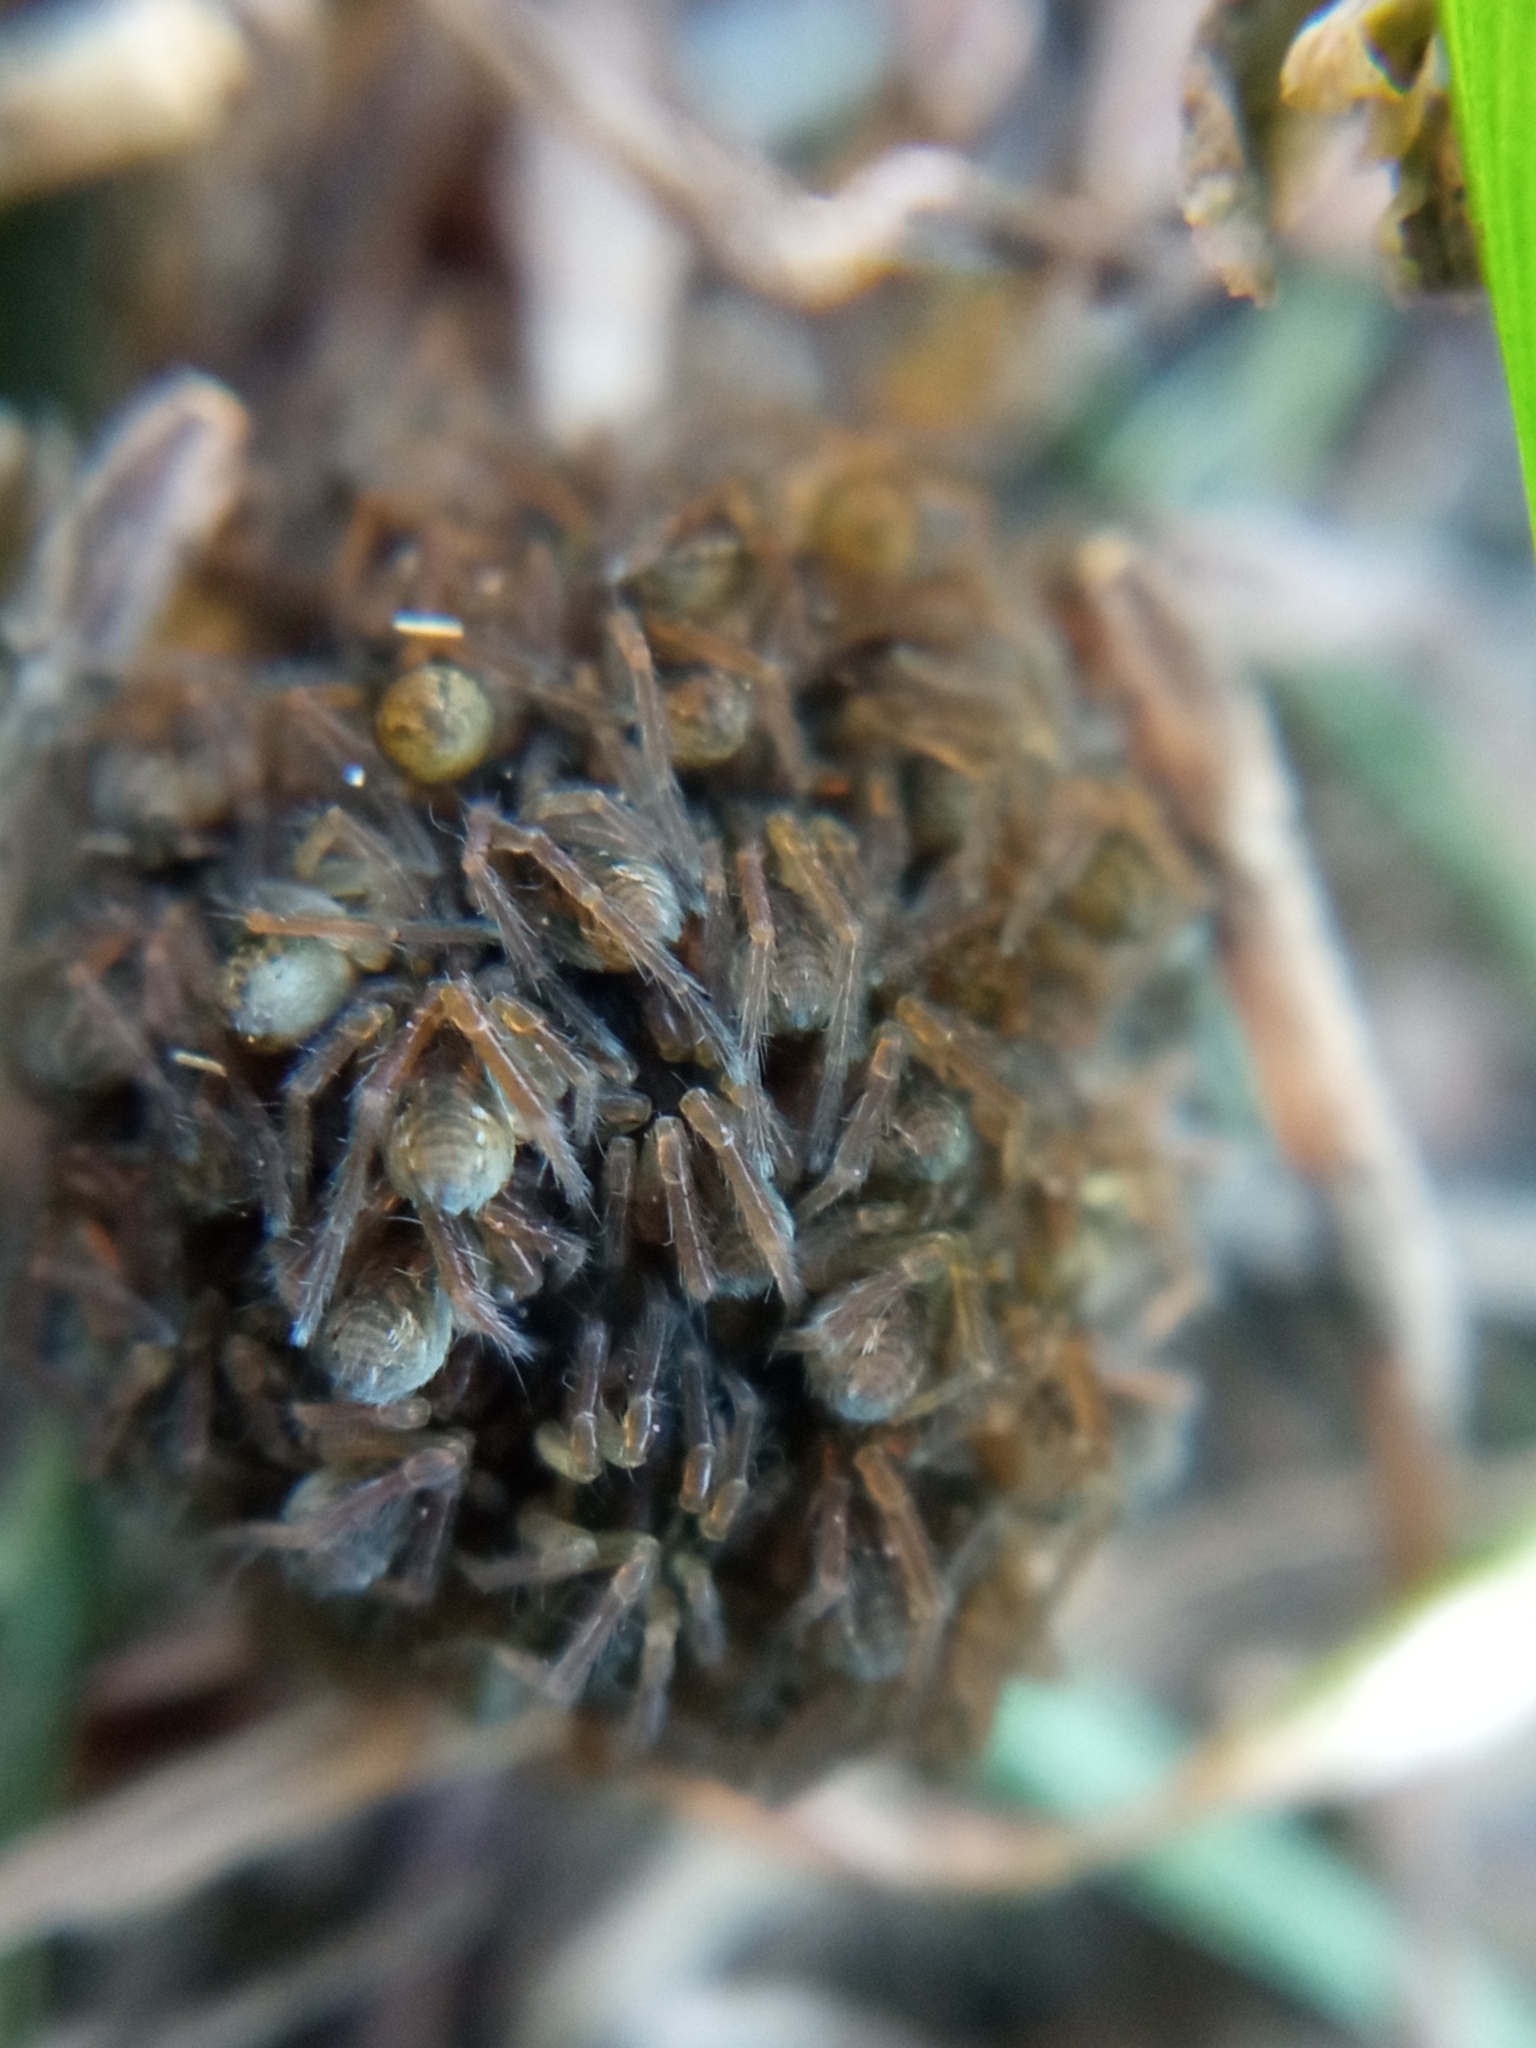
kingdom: Animalia
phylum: Arthropoda
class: Arachnida
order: Araneae
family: Lycosidae
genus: Hogna
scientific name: Hogna radiata
